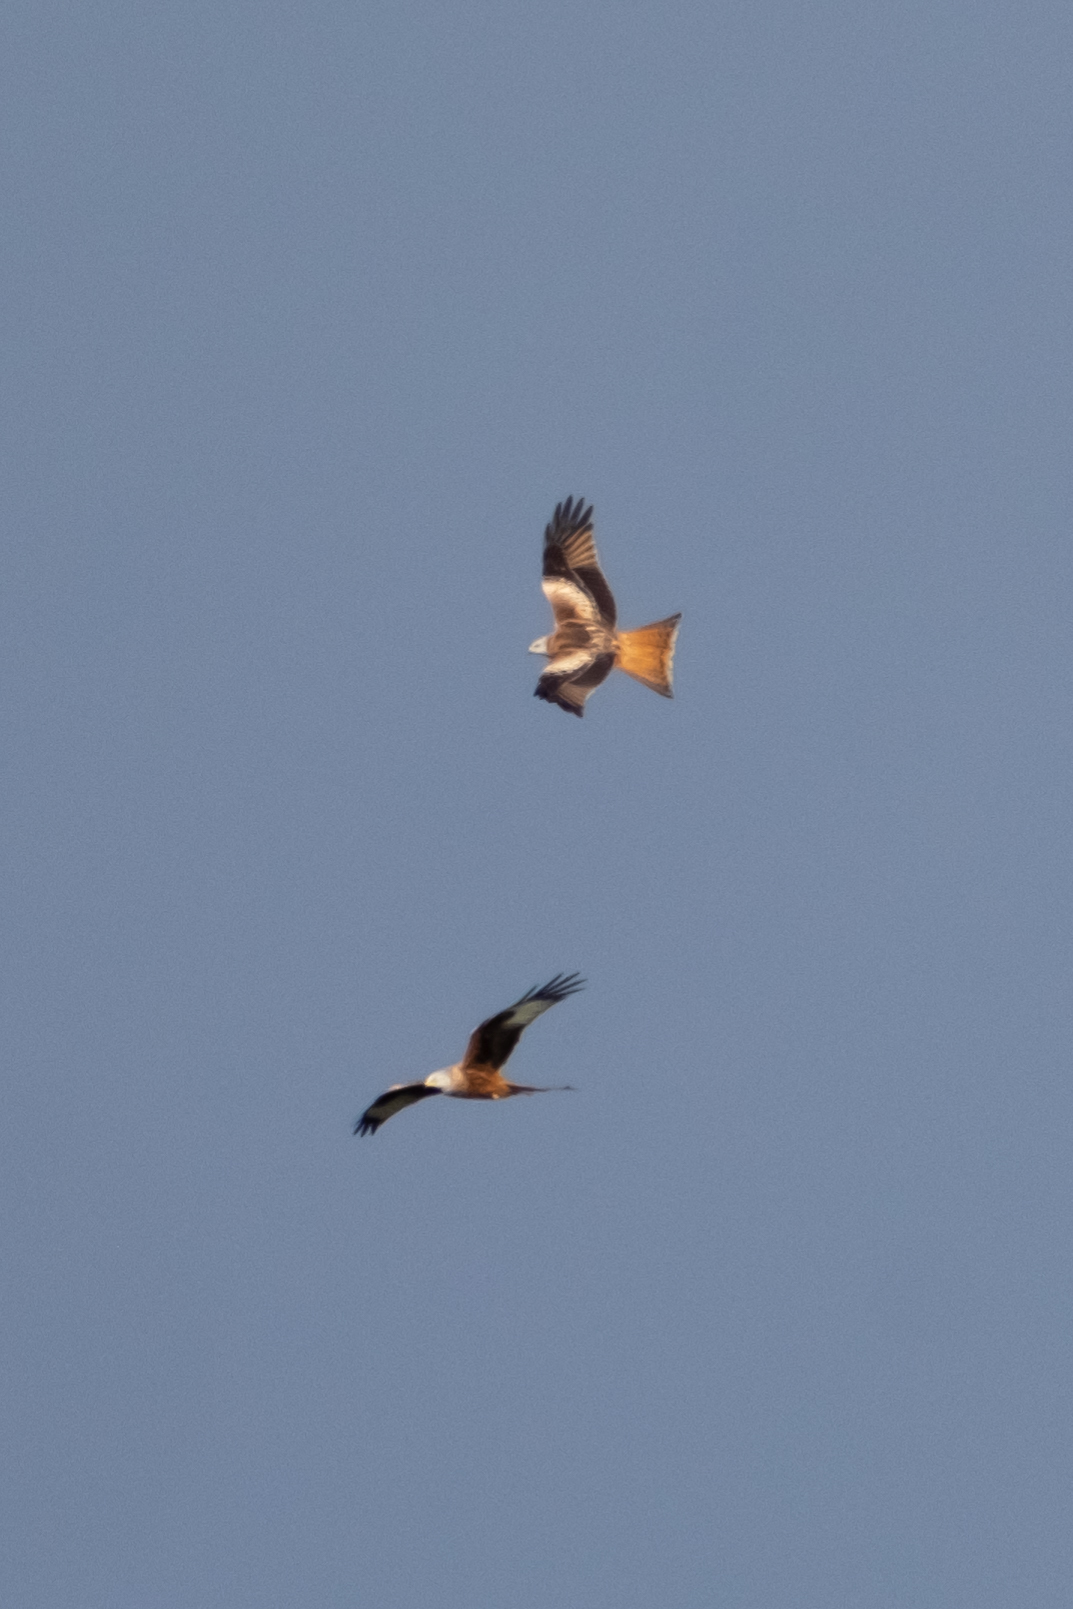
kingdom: Animalia
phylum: Chordata
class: Aves
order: Accipitriformes
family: Accipitridae
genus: Milvus
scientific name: Milvus milvus
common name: Red kite
